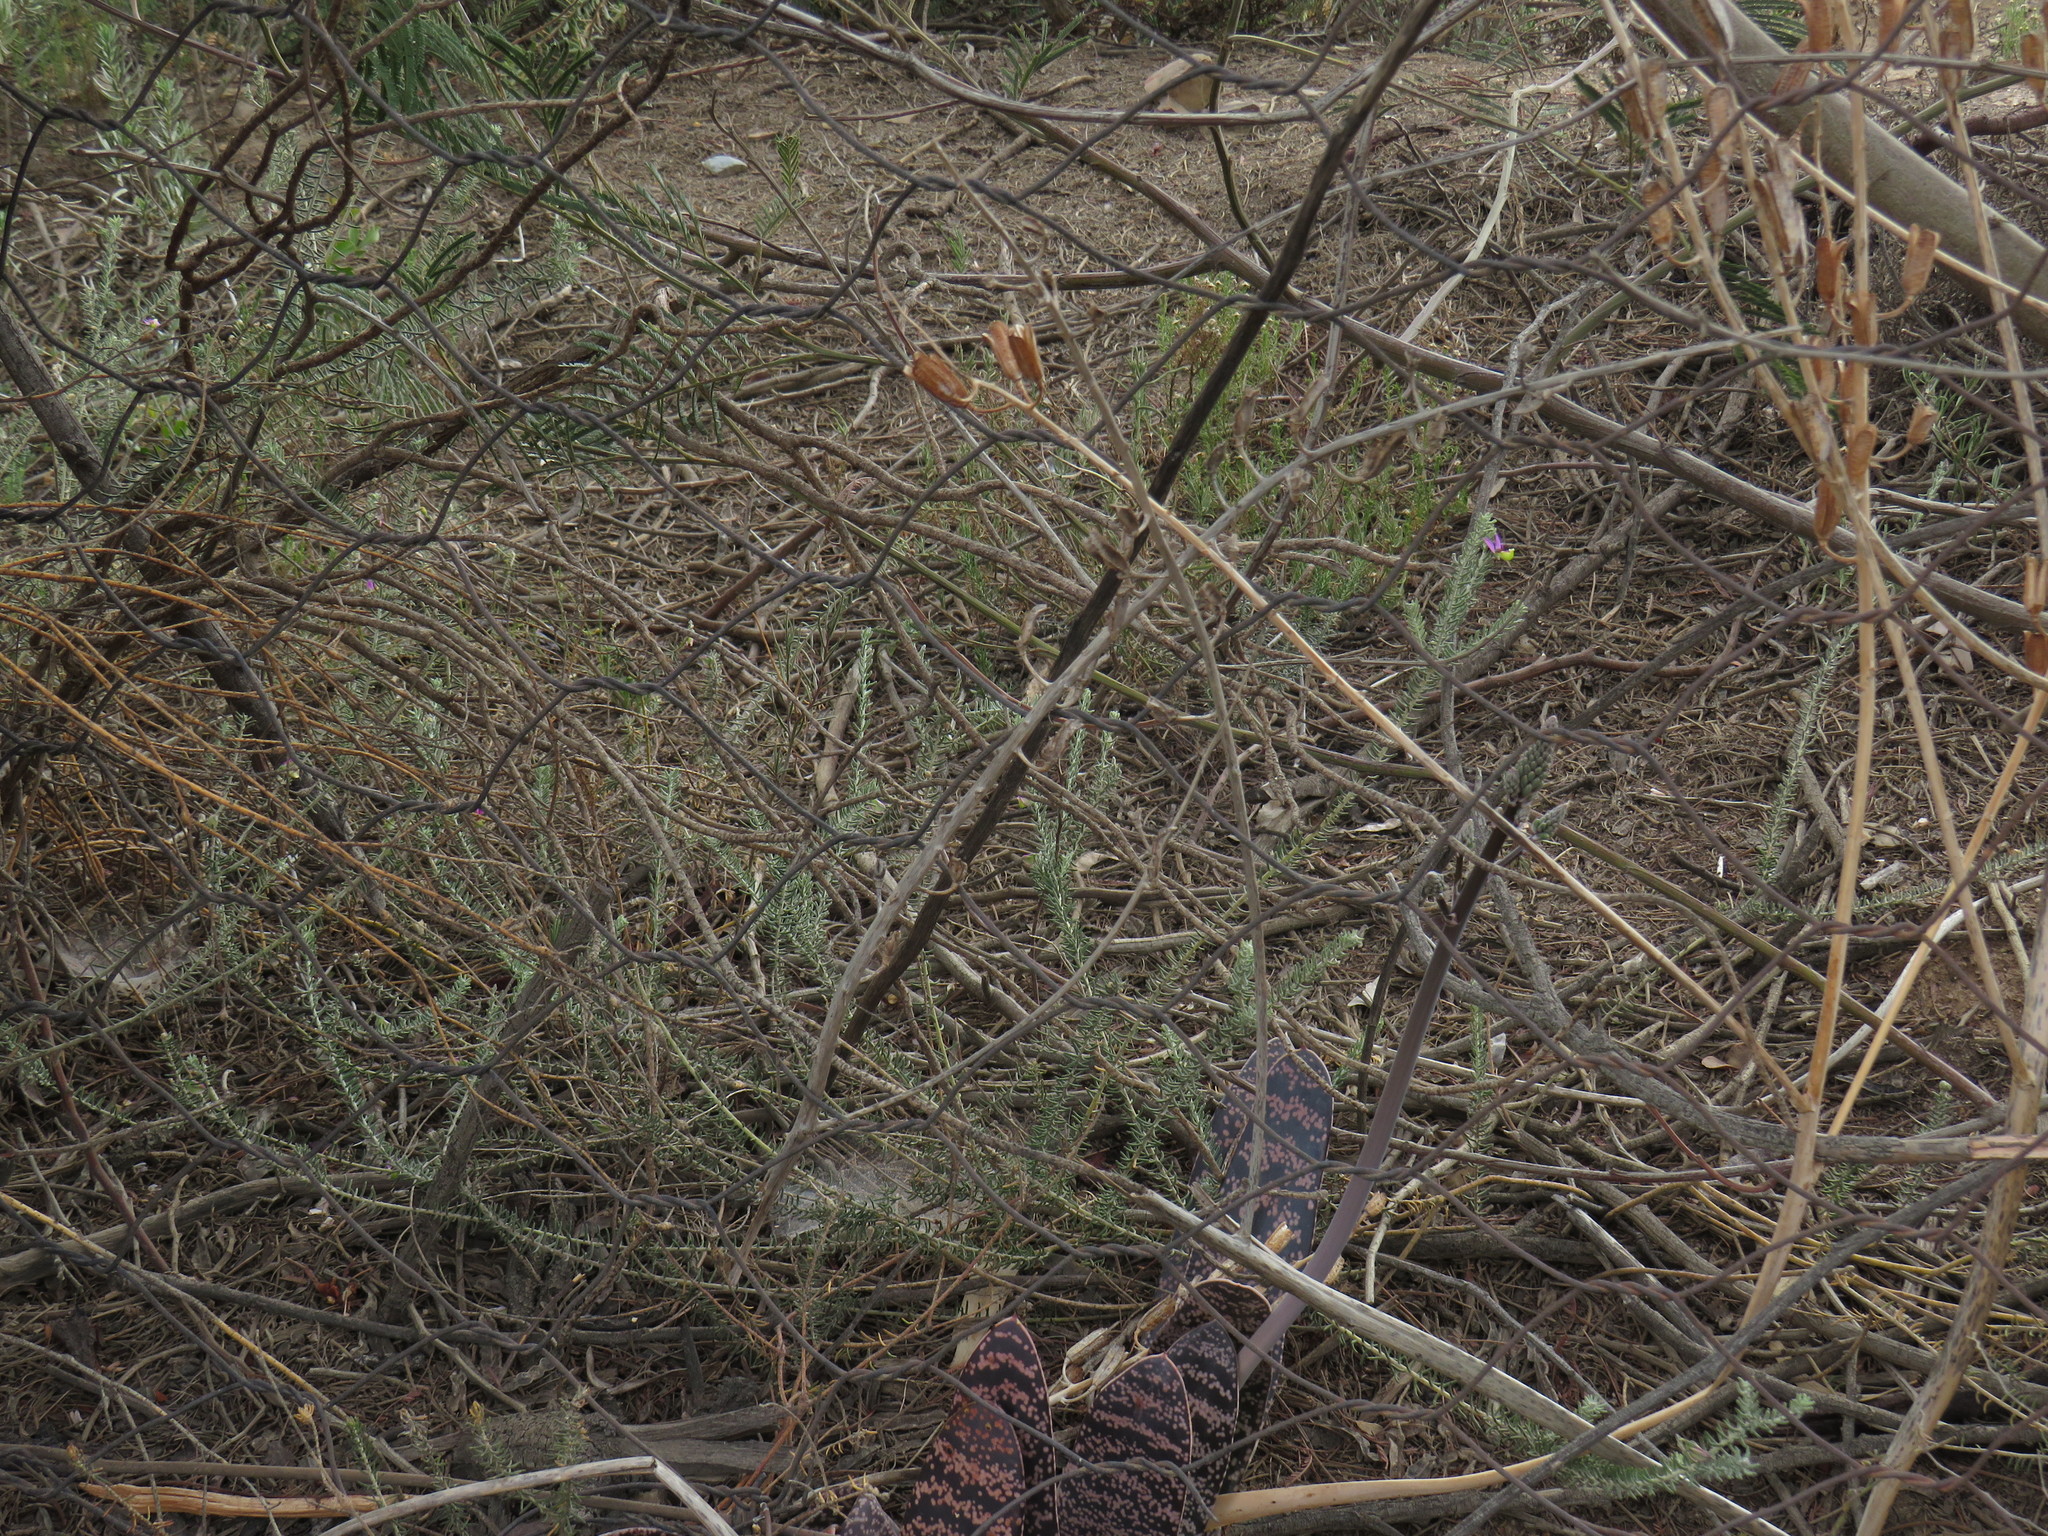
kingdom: Plantae
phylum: Tracheophyta
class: Magnoliopsida
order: Fabales
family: Polygalaceae
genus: Polygala
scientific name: Polygala teretifolia
